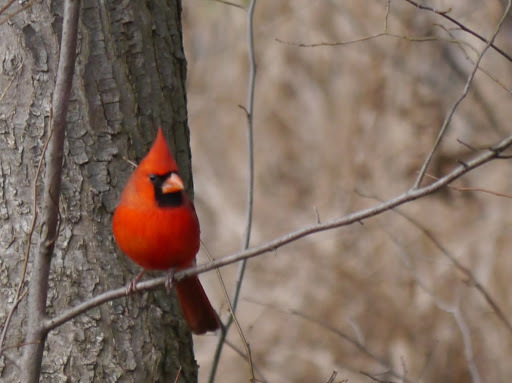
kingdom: Animalia
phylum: Chordata
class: Aves
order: Passeriformes
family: Cardinalidae
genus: Cardinalis
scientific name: Cardinalis cardinalis
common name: Northern cardinal
